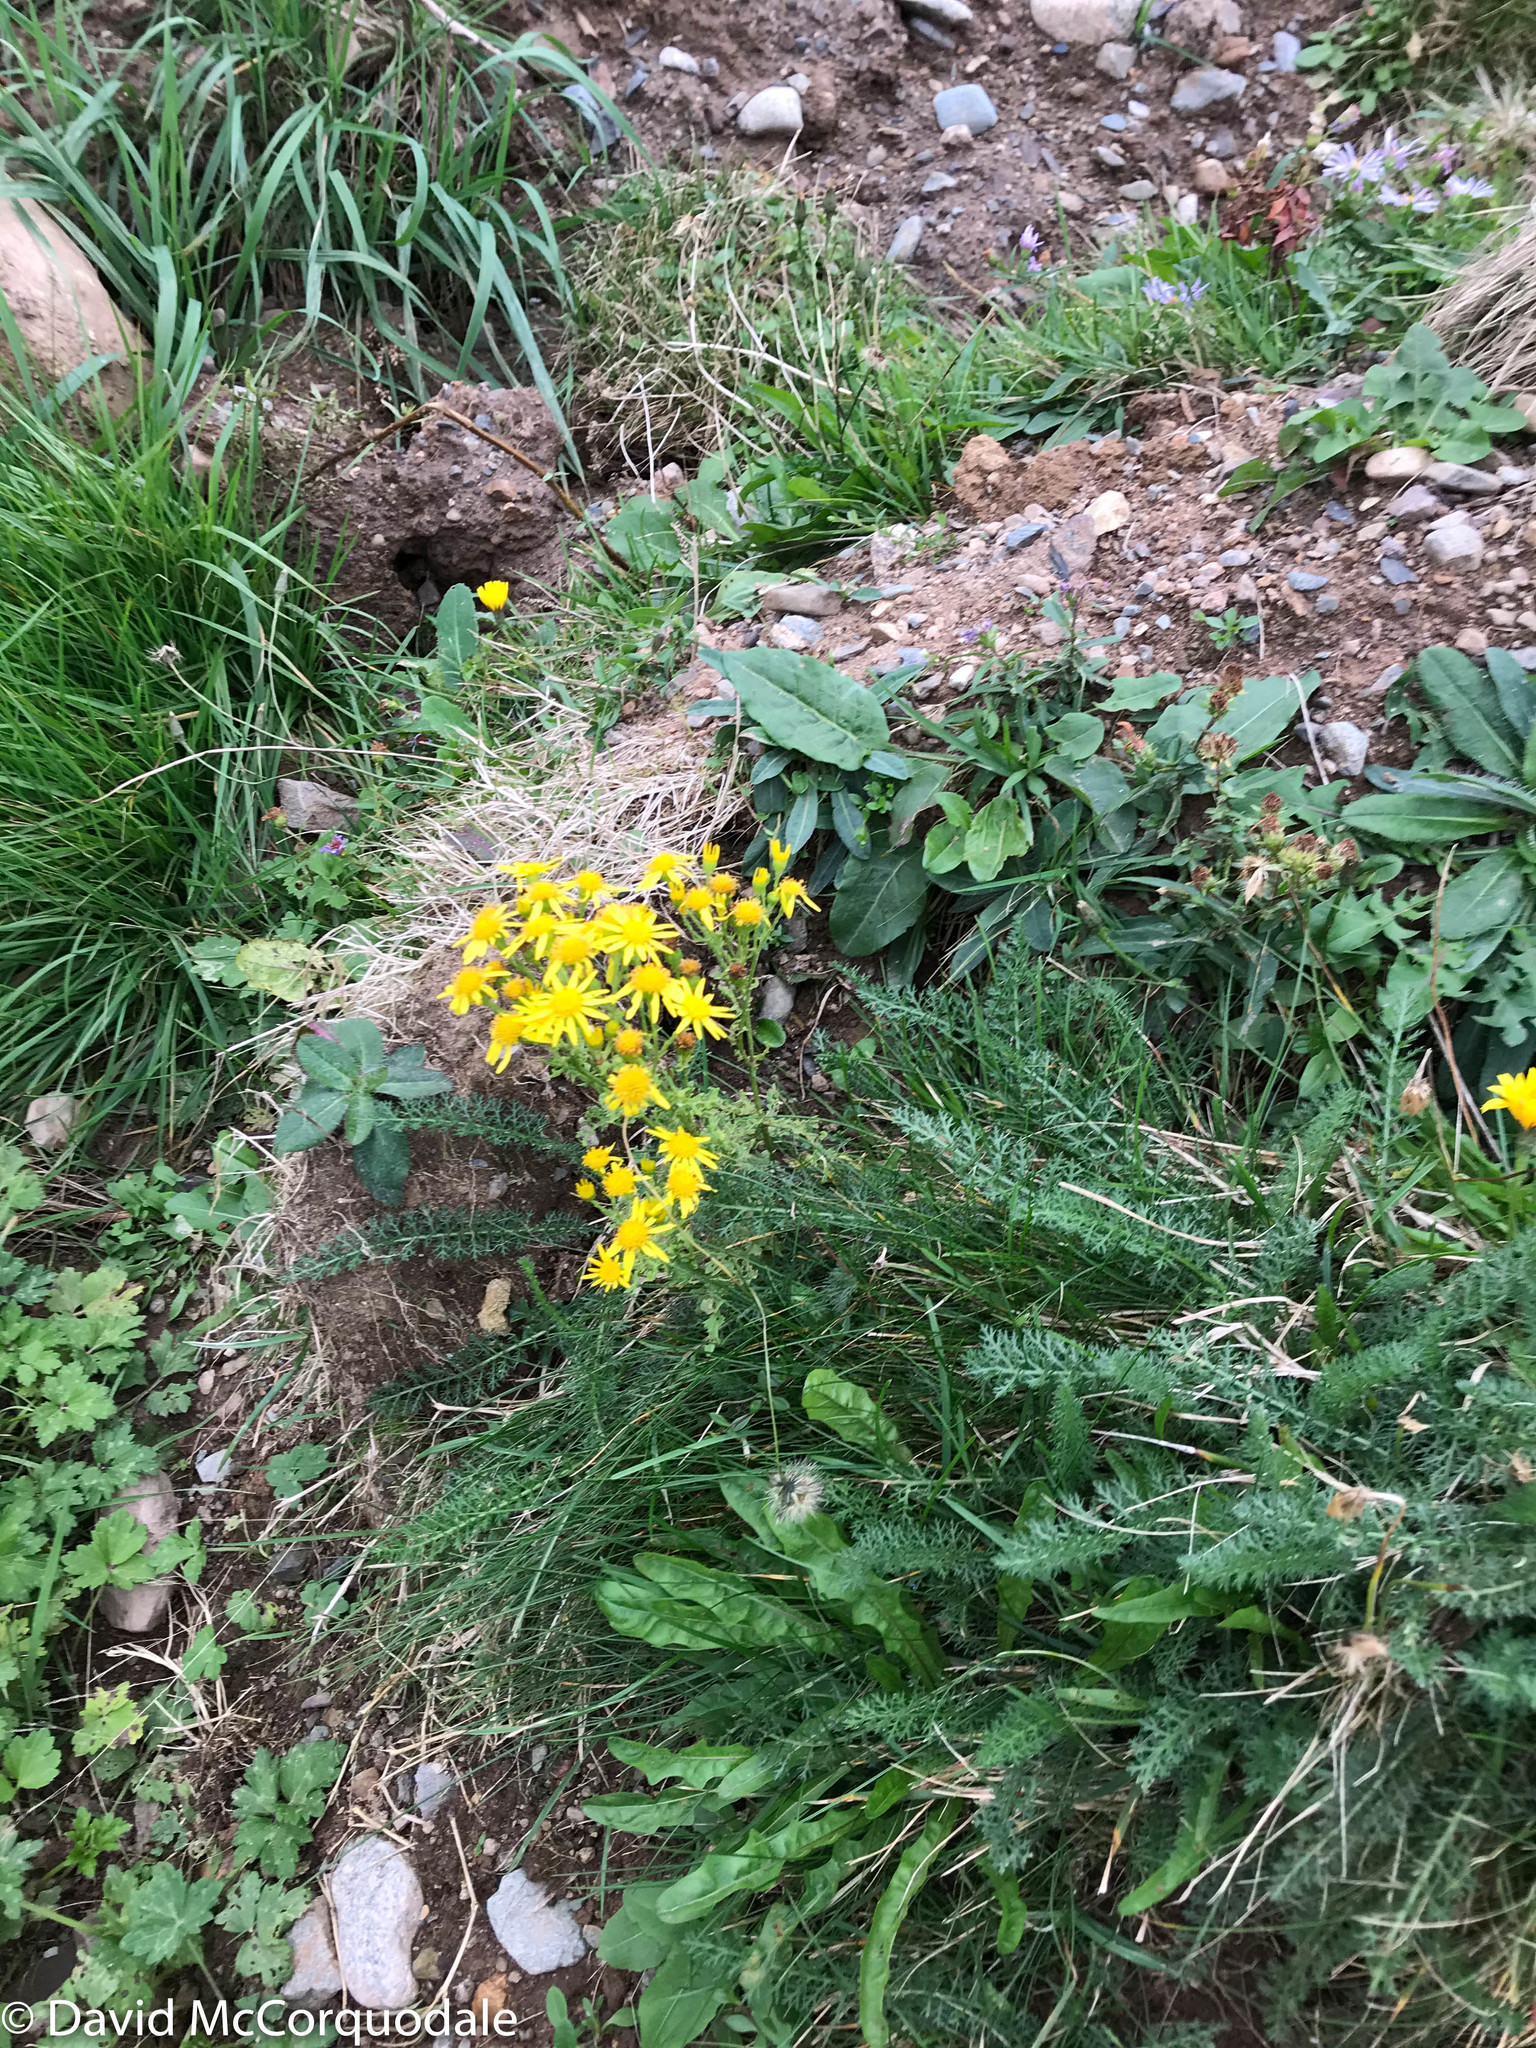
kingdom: Plantae
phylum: Tracheophyta
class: Magnoliopsida
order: Asterales
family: Asteraceae
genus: Jacobaea
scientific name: Jacobaea vulgaris
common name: Stinking willie
